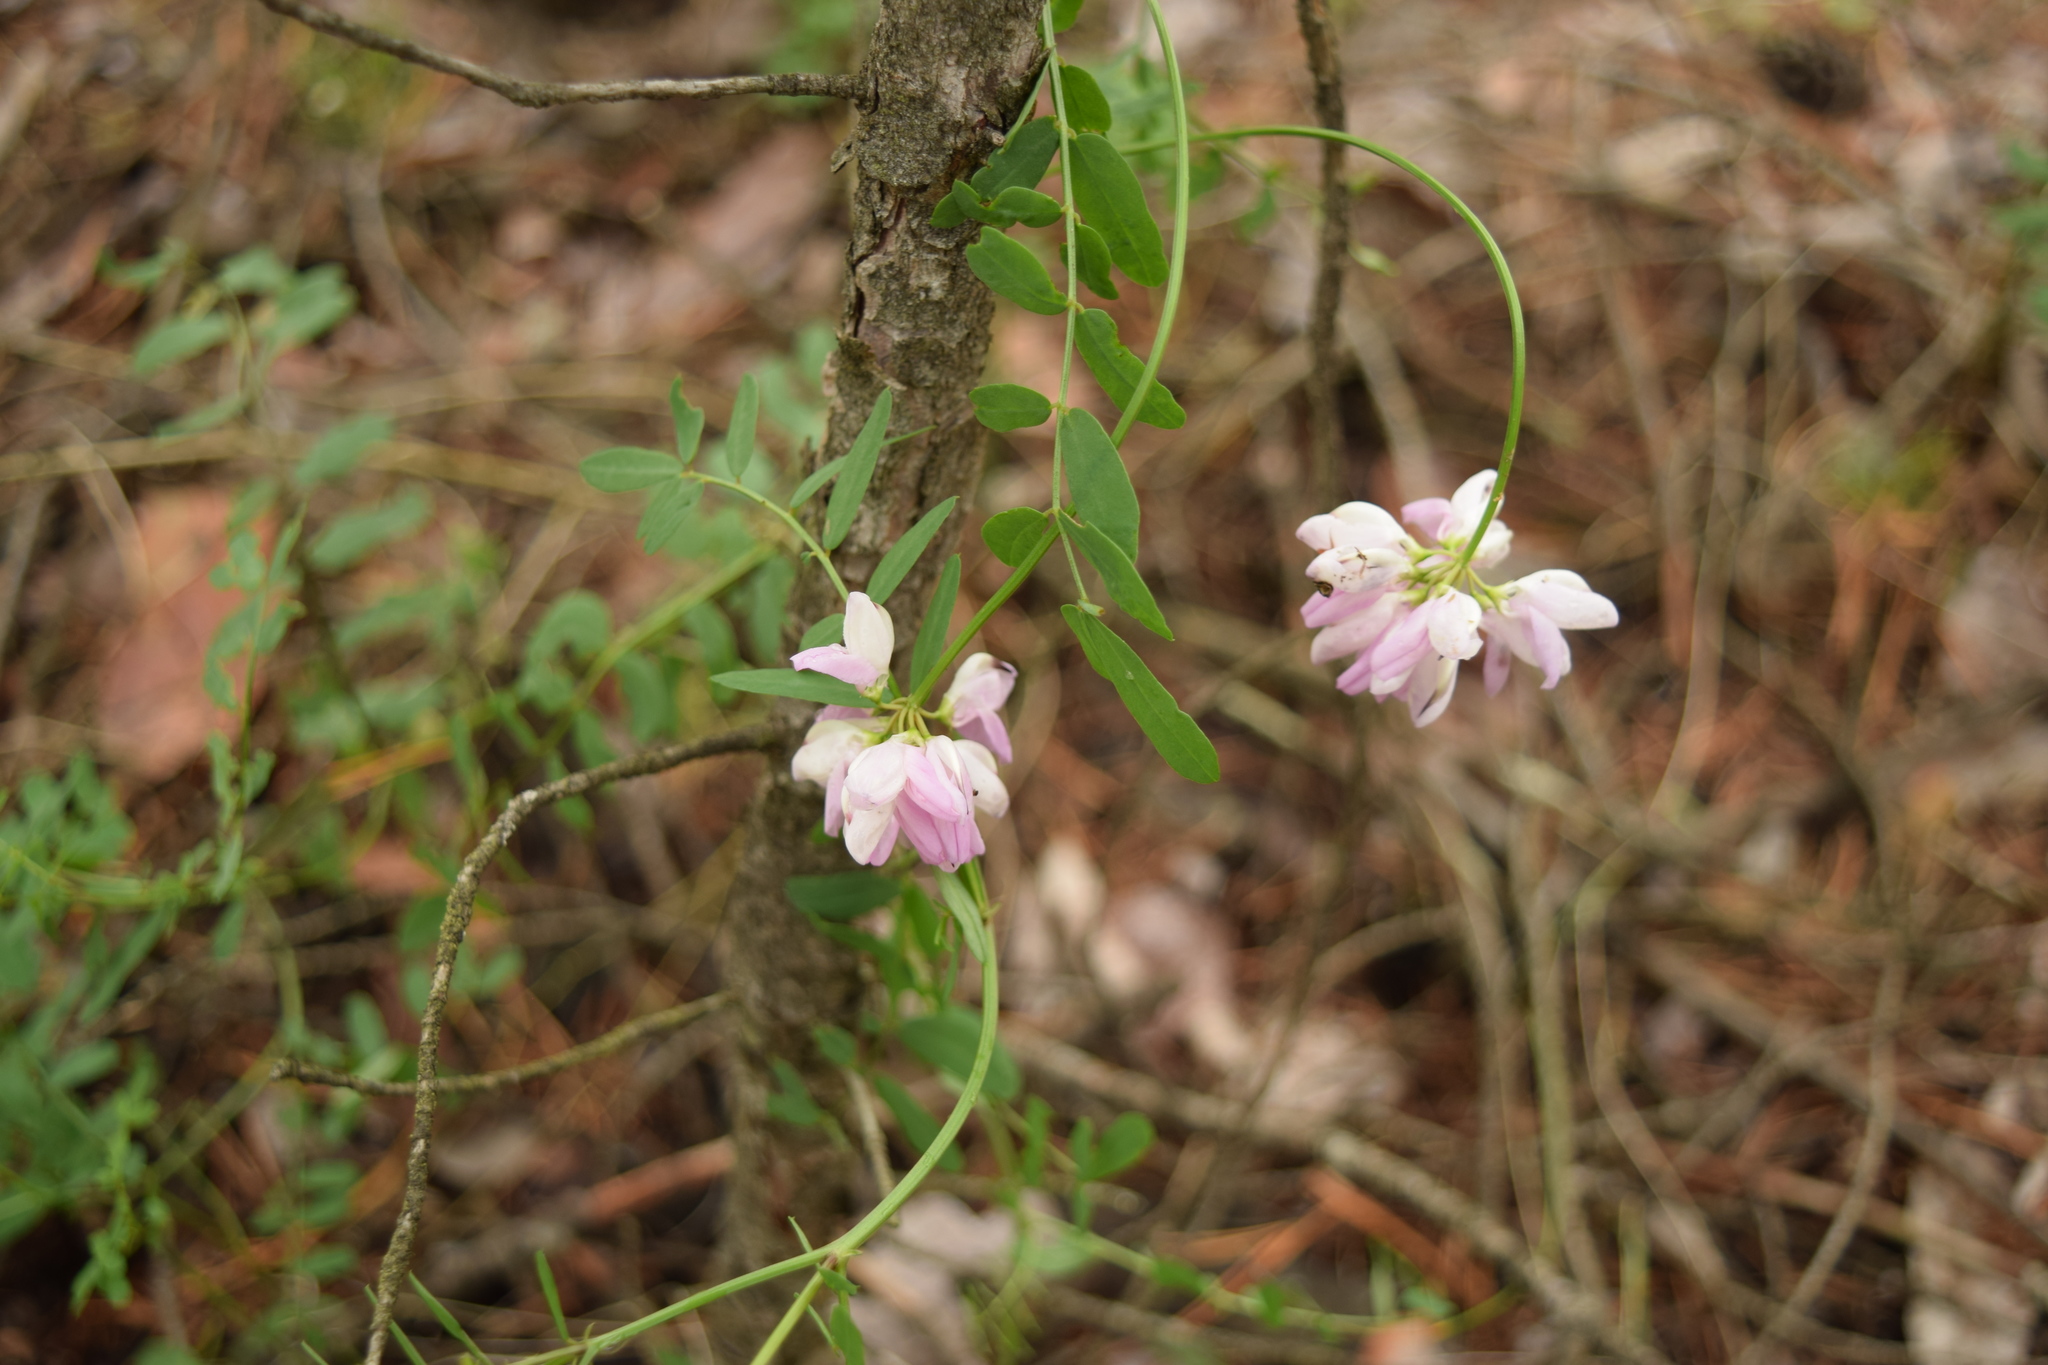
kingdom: Plantae
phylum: Tracheophyta
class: Magnoliopsida
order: Fabales
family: Fabaceae
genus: Coronilla
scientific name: Coronilla varia
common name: Crownvetch
